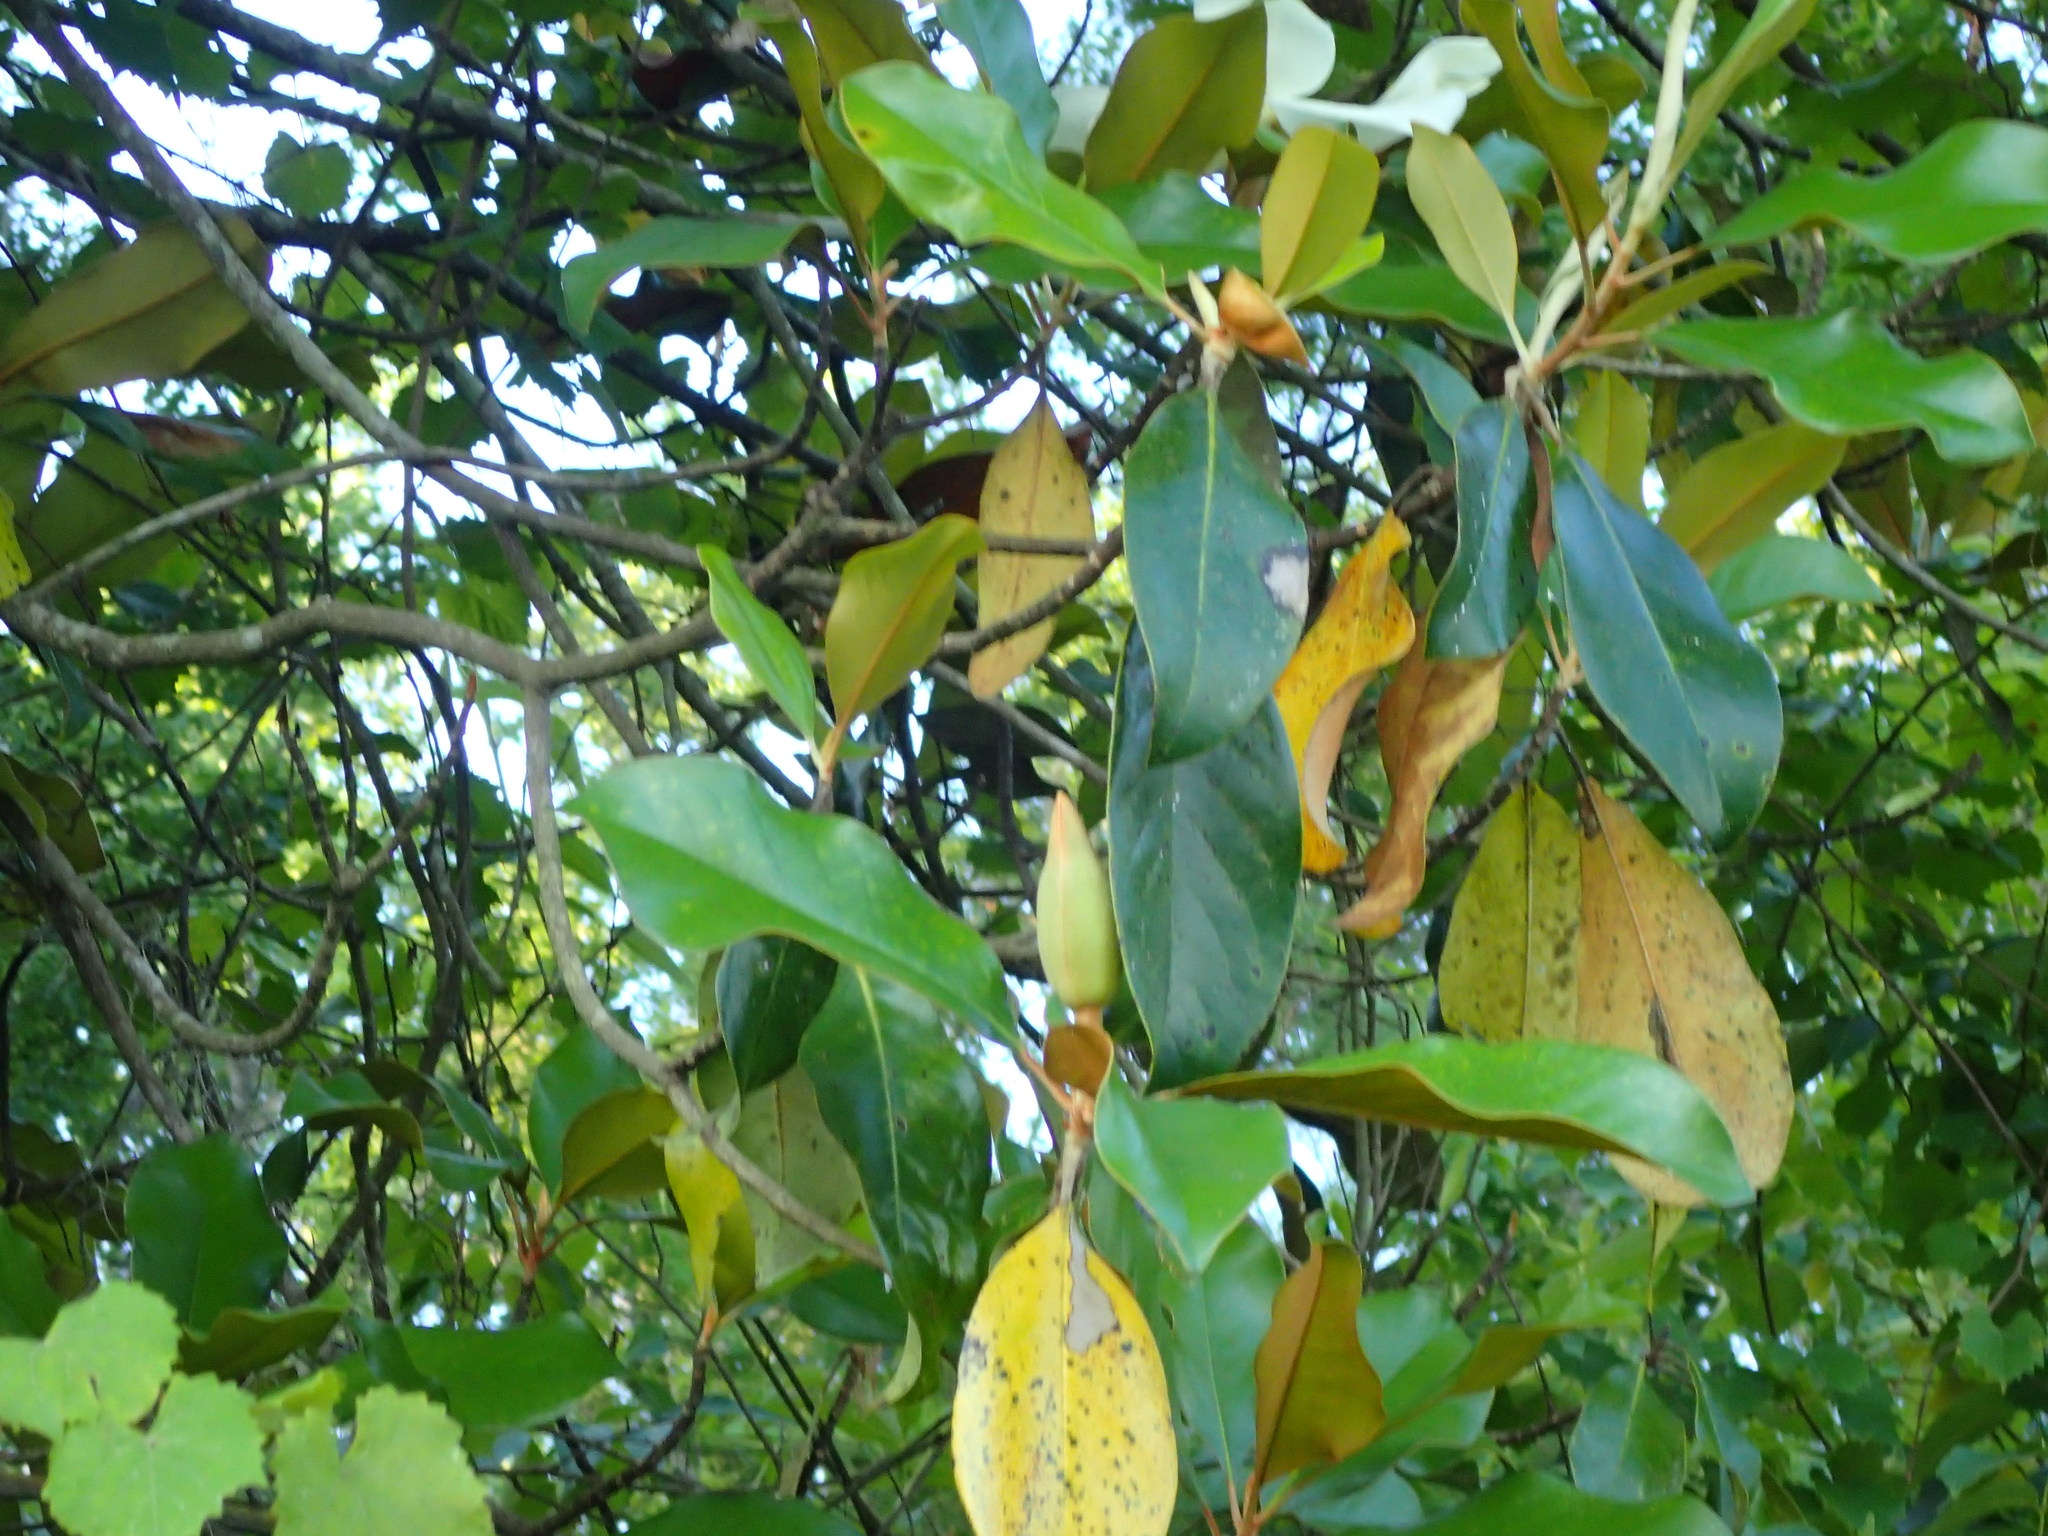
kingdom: Plantae
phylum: Tracheophyta
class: Magnoliopsida
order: Magnoliales
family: Magnoliaceae
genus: Magnolia
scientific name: Magnolia grandiflora
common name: Southern magnolia
